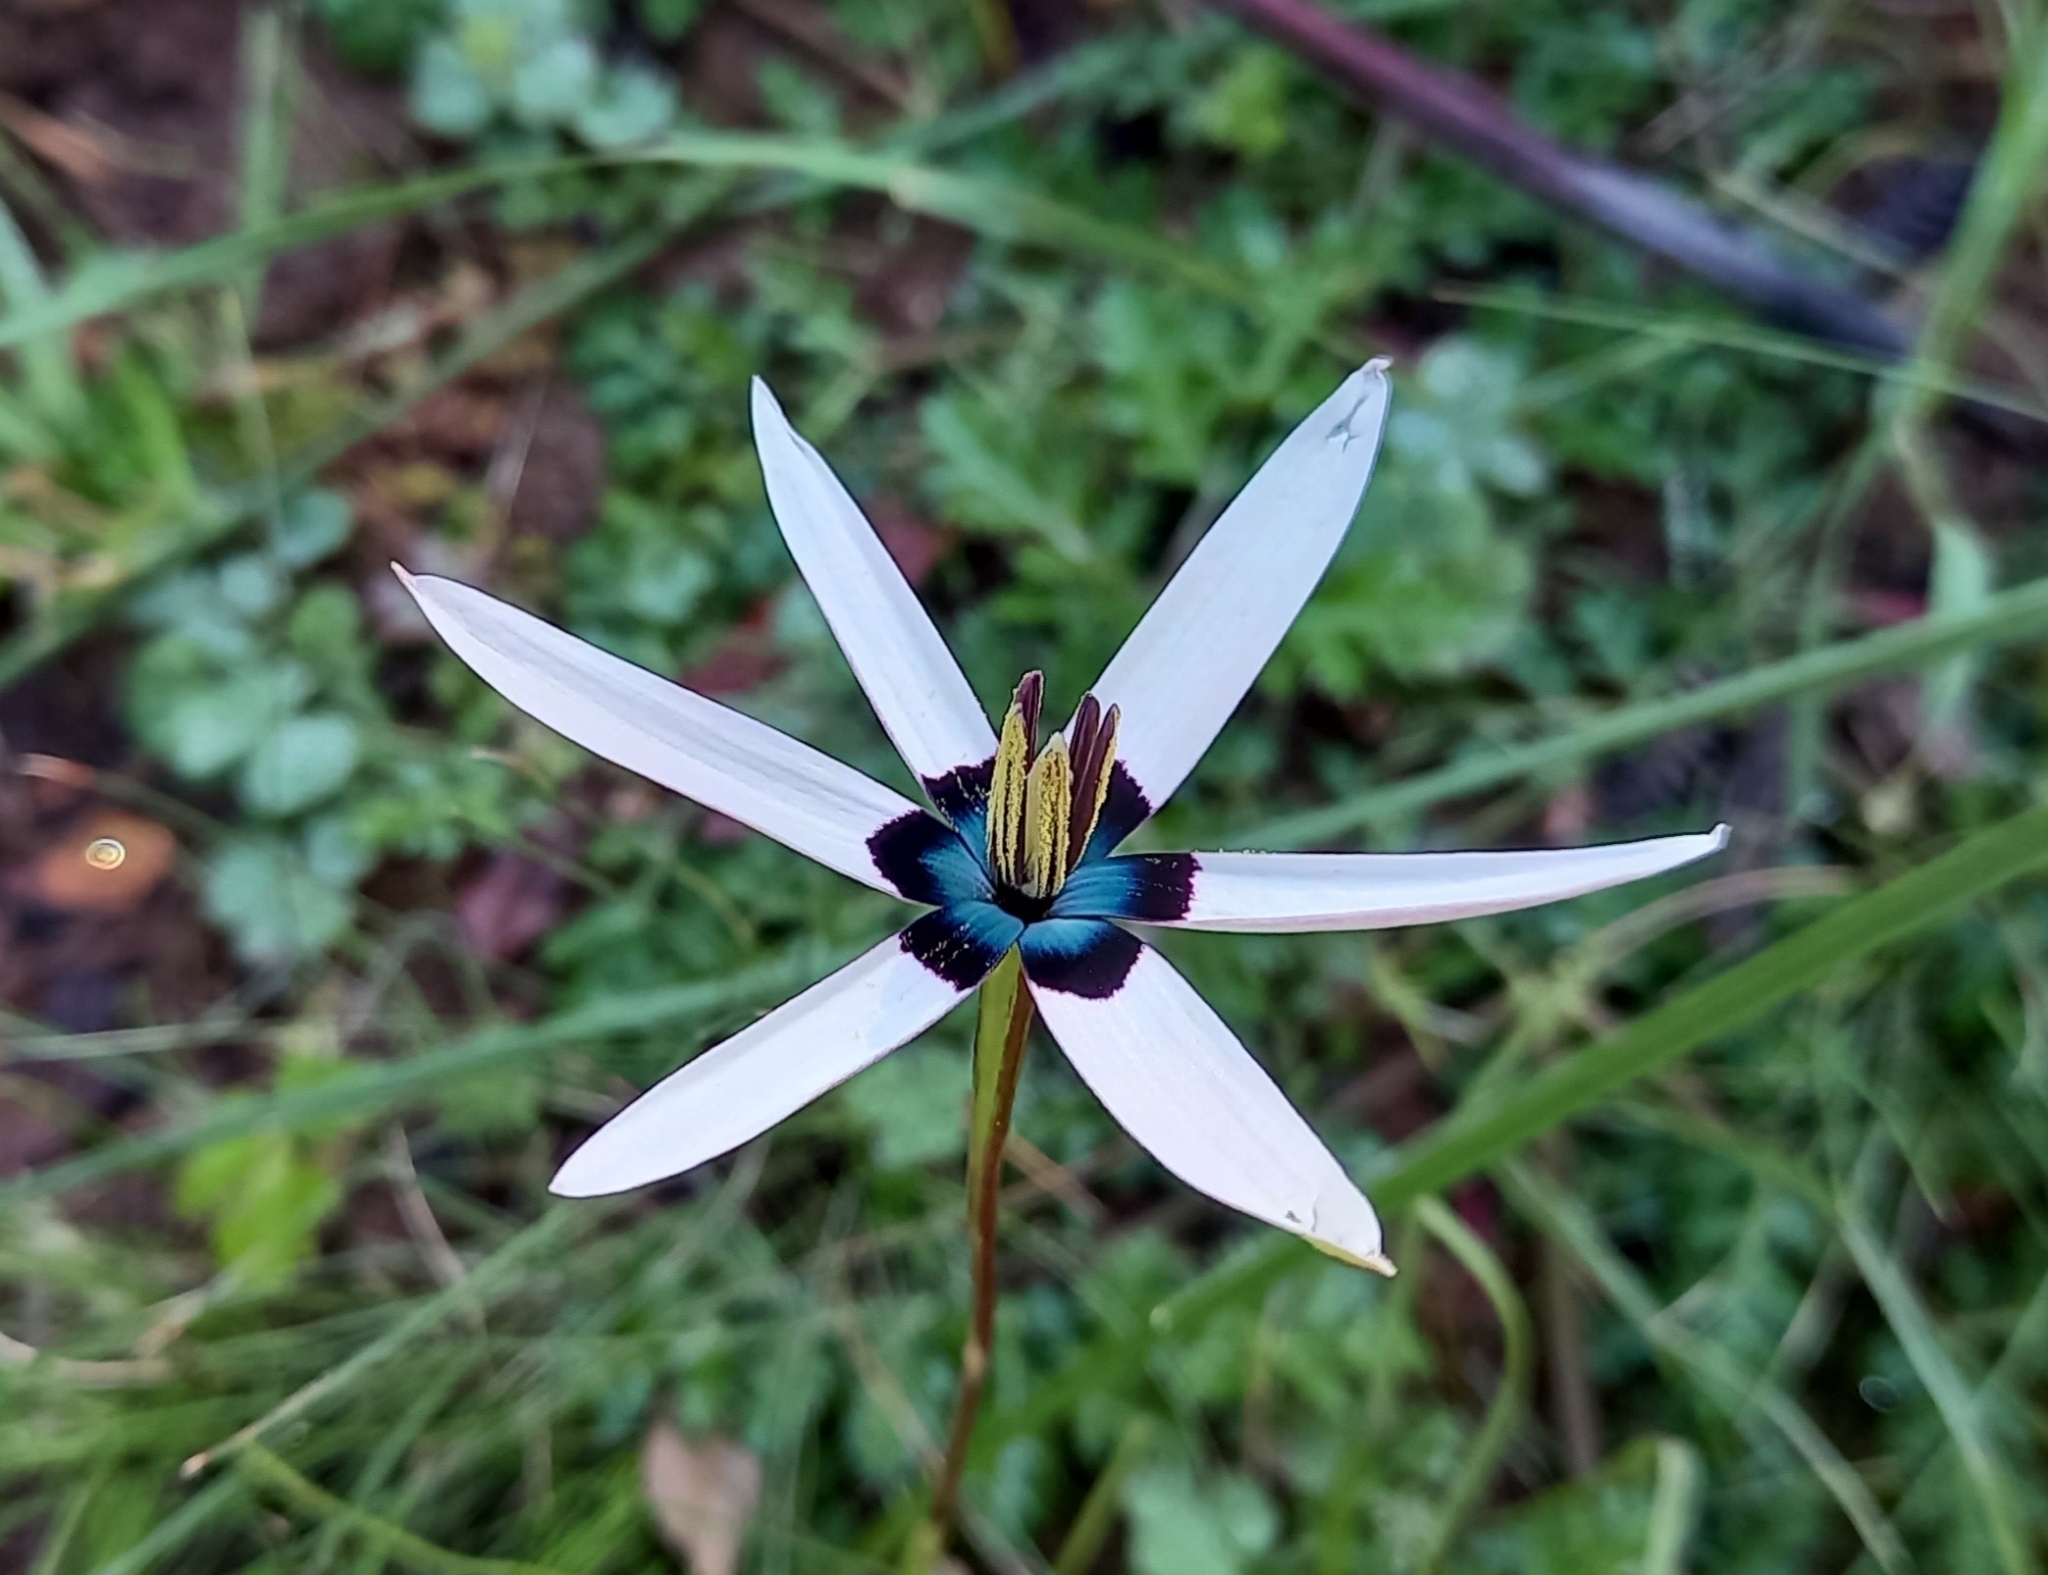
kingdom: Plantae
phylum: Tracheophyta
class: Liliopsida
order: Asparagales
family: Hypoxidaceae
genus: Pauridia
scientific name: Pauridia capensis
